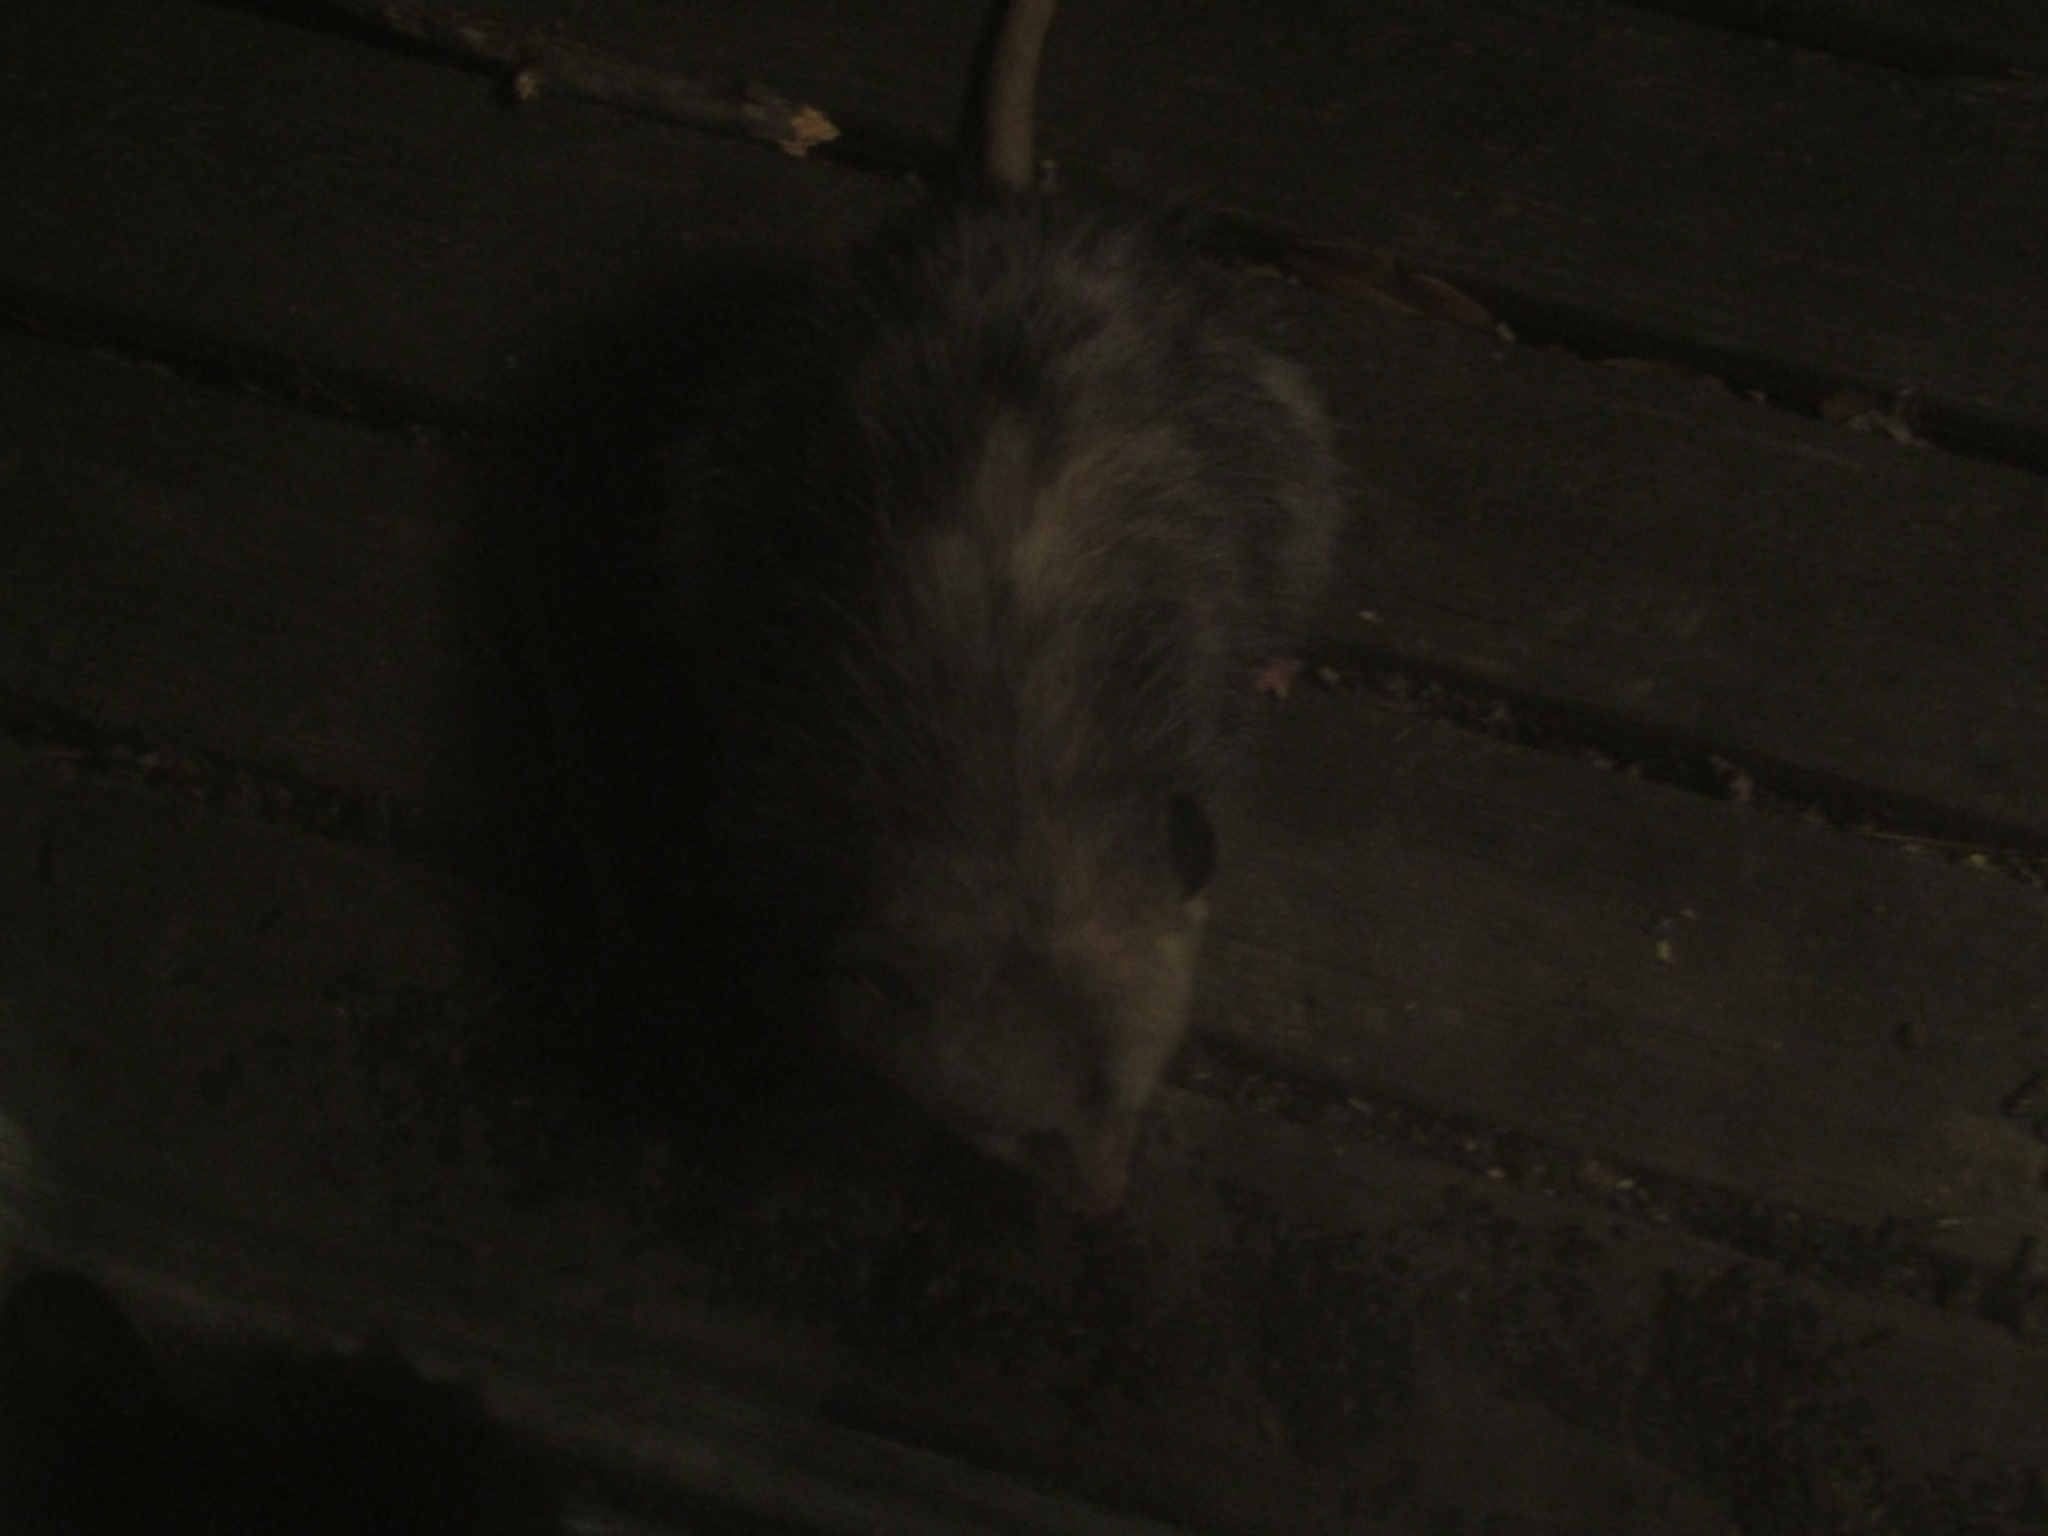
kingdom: Animalia
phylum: Chordata
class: Mammalia
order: Didelphimorphia
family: Didelphidae
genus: Didelphis
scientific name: Didelphis virginiana
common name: Virginia opossum
